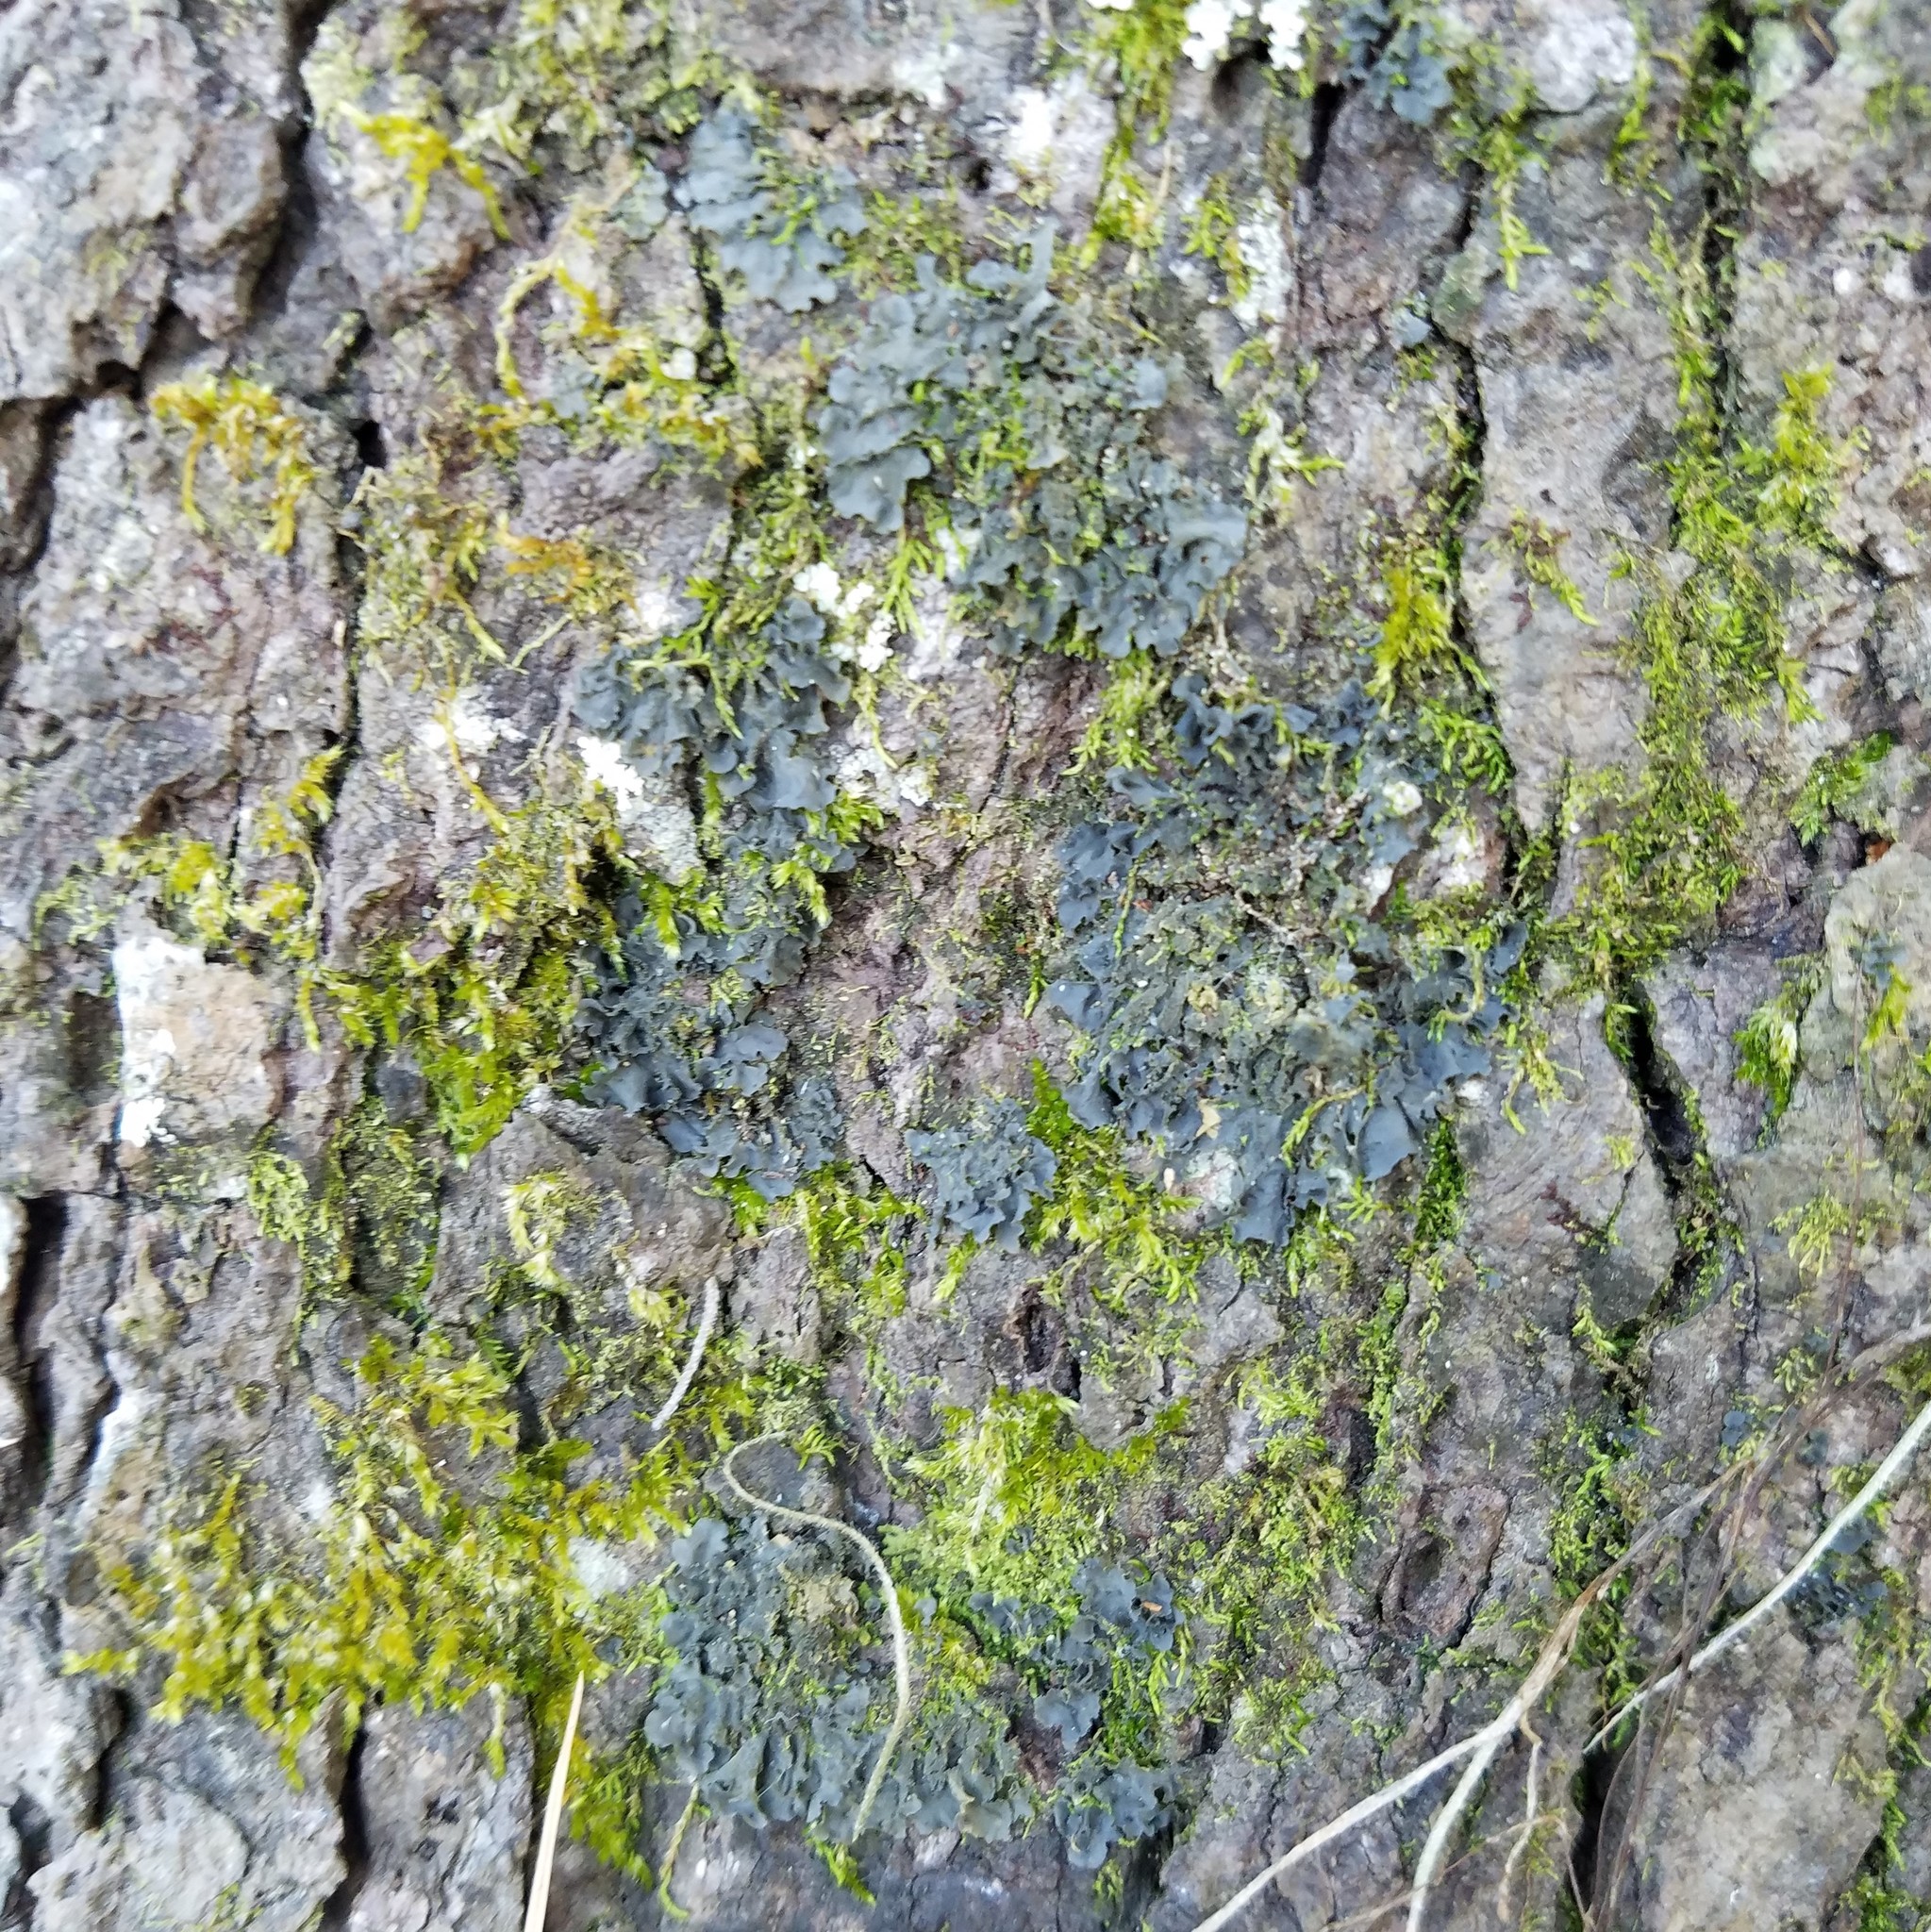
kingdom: Fungi
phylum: Ascomycota
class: Lecanoromycetes
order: Peltigerales
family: Collemataceae
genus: Leptogium
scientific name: Leptogium cyanescens
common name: Blue jellyskin
